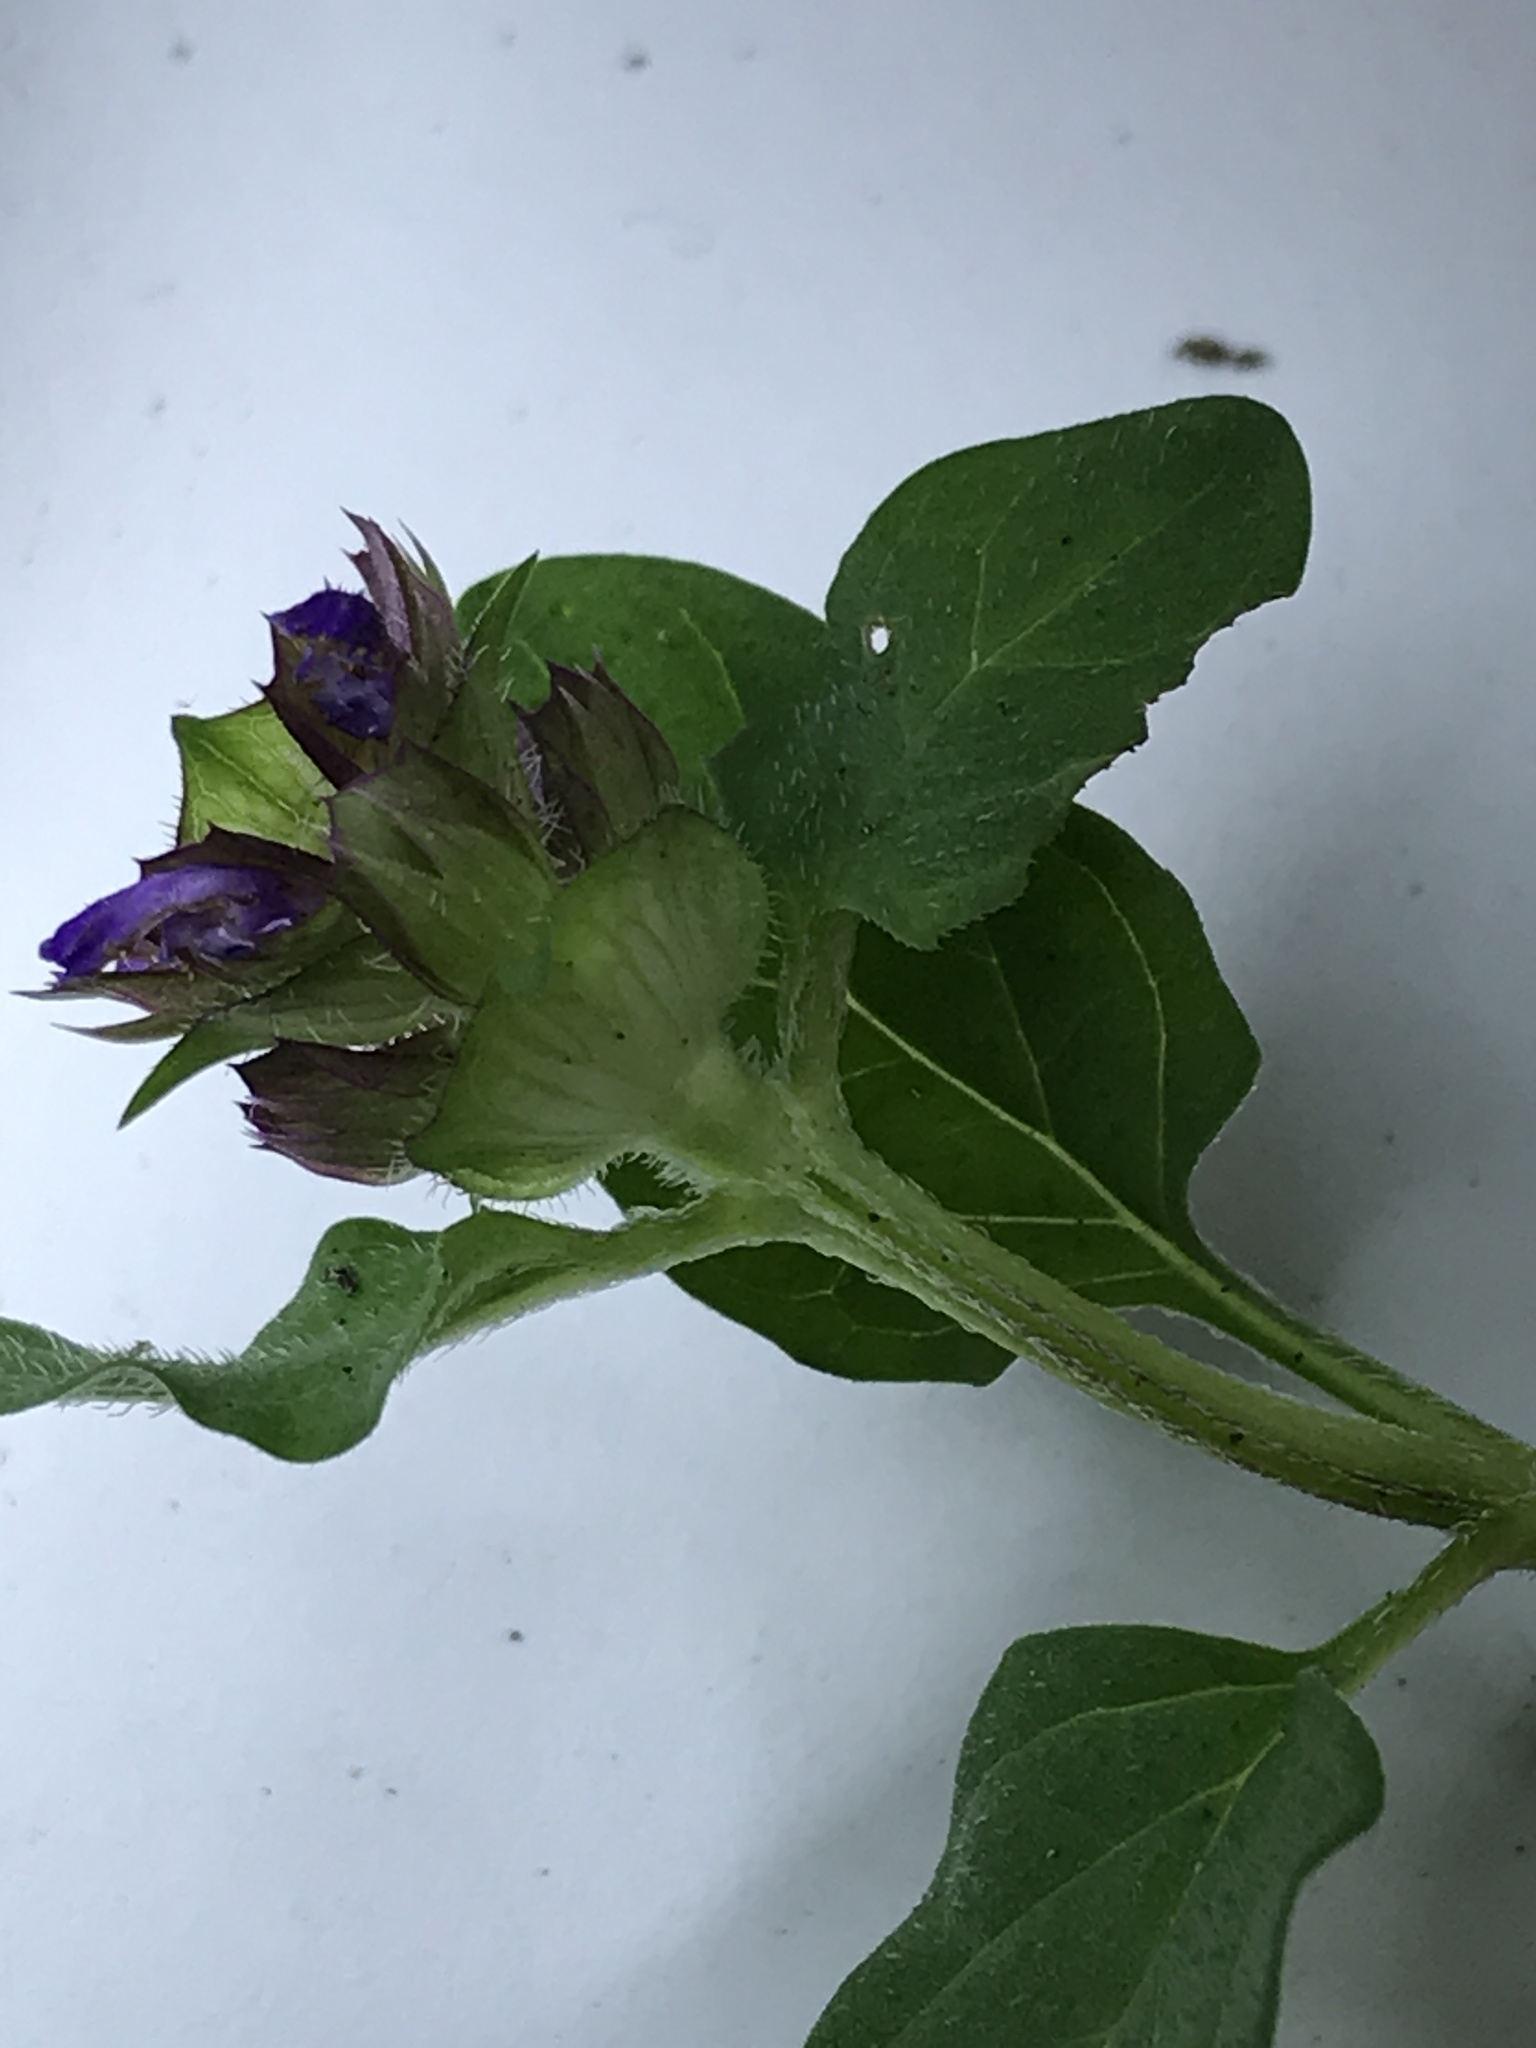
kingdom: Plantae
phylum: Tracheophyta
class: Magnoliopsida
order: Lamiales
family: Lamiaceae
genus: Prunella
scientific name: Prunella vulgaris
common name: Heal-all
